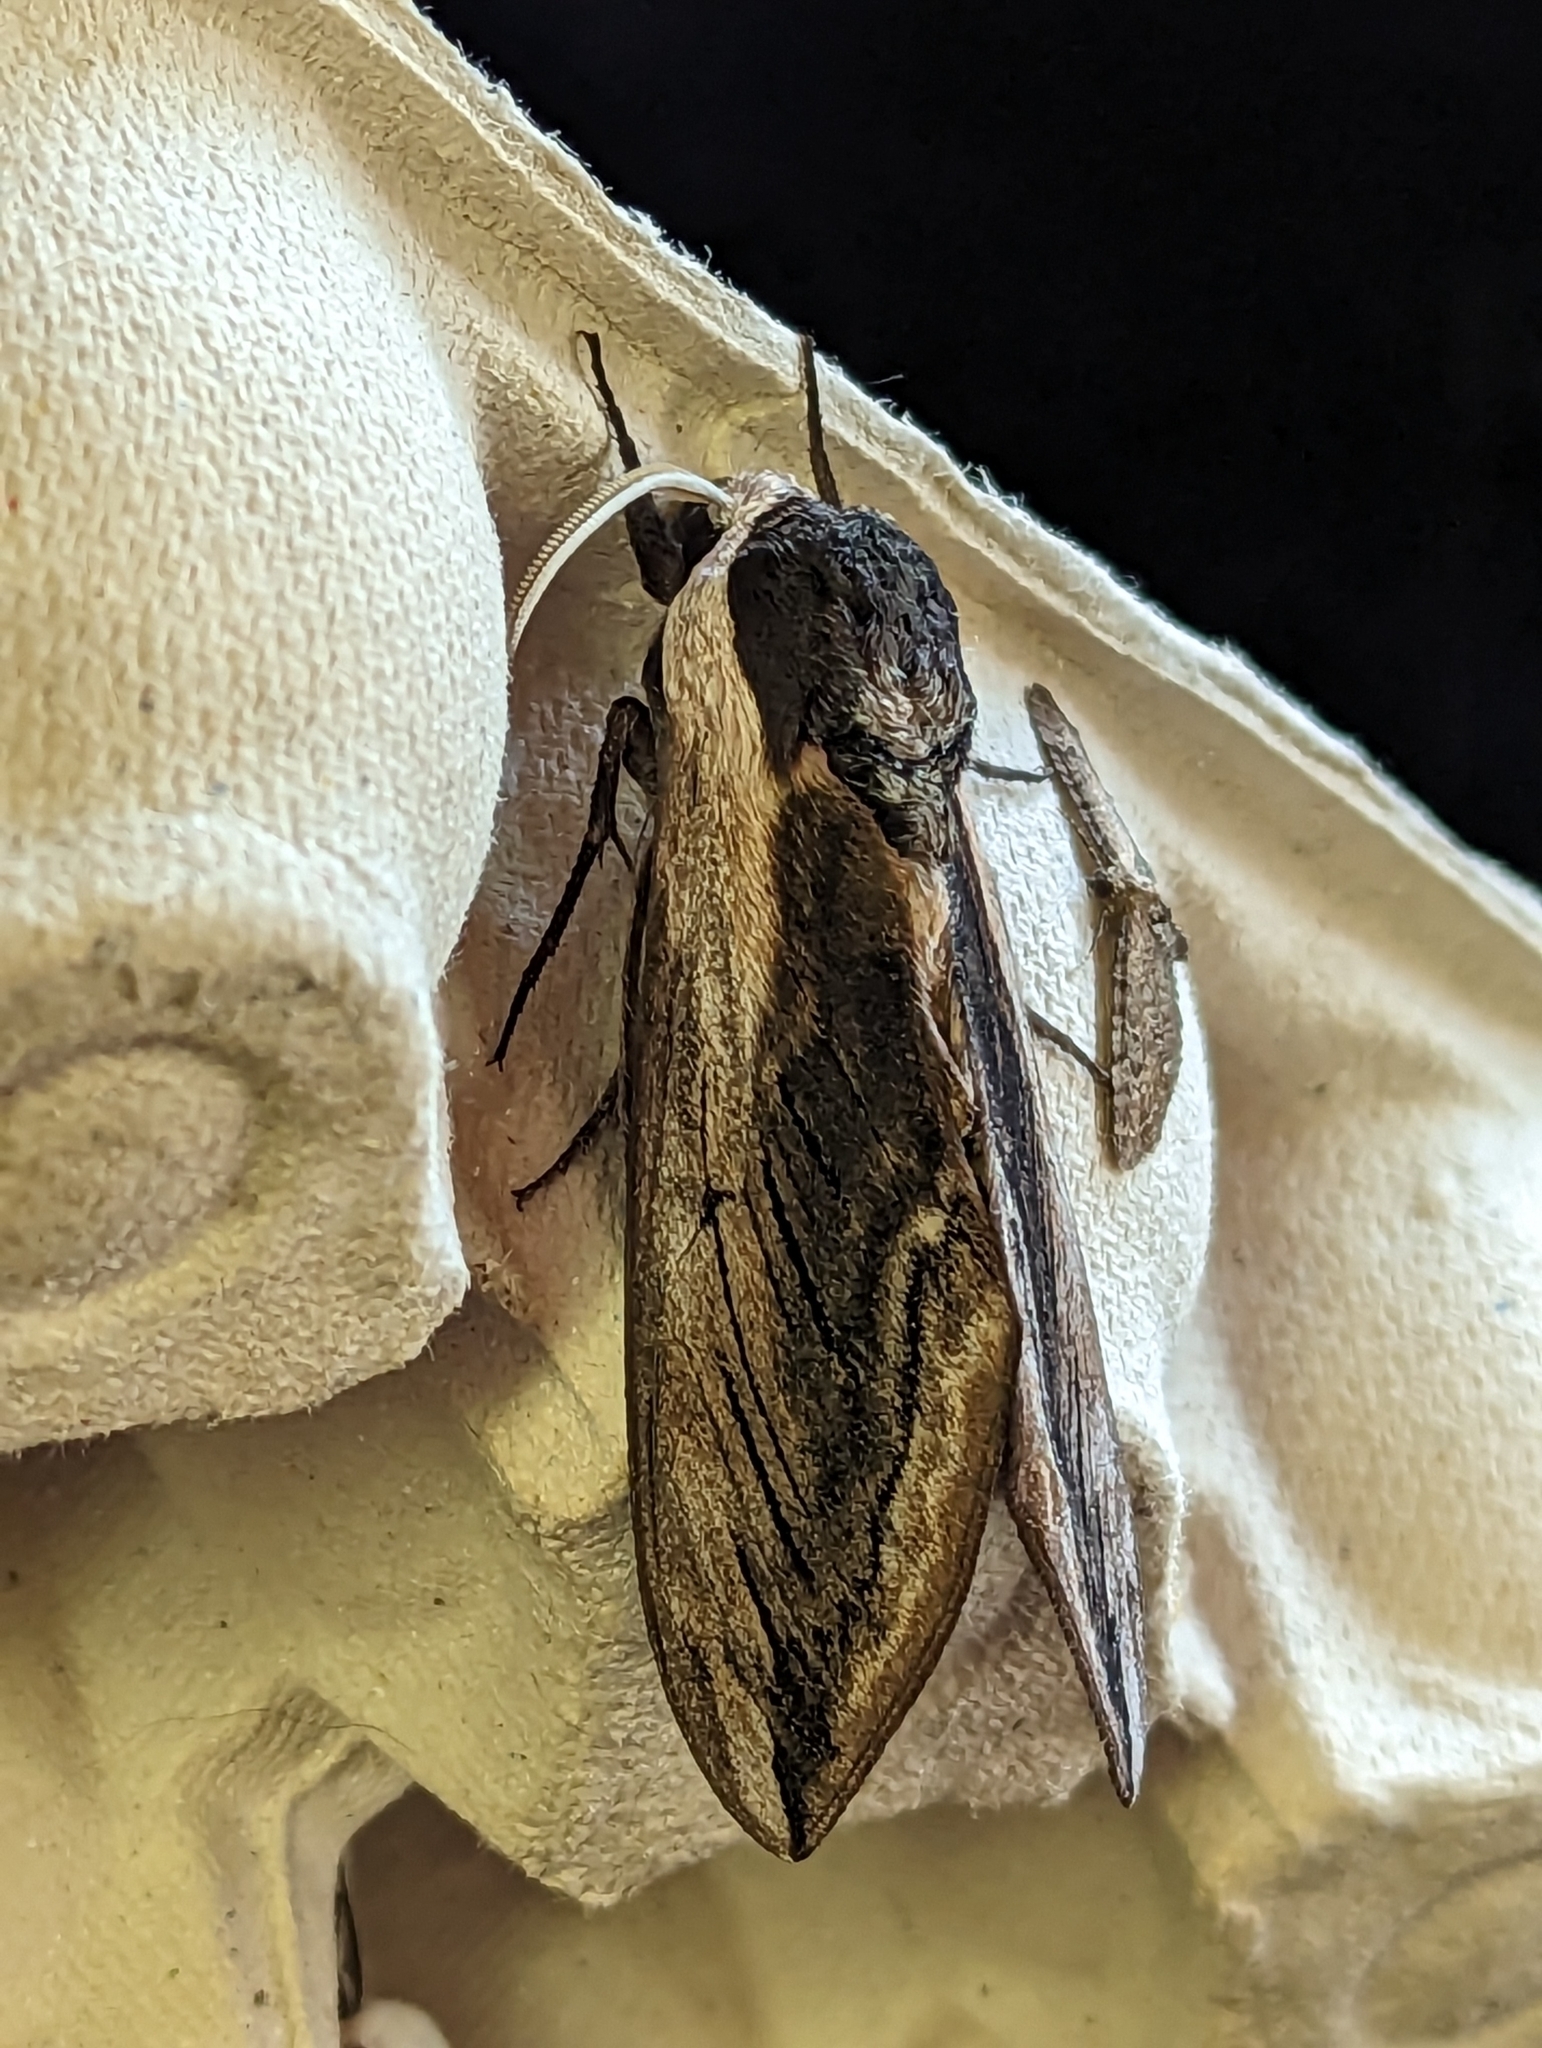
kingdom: Animalia
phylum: Arthropoda
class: Insecta
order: Lepidoptera
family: Sphingidae
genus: Sphinx
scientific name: Sphinx ligustri
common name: Privet hawk-moth
